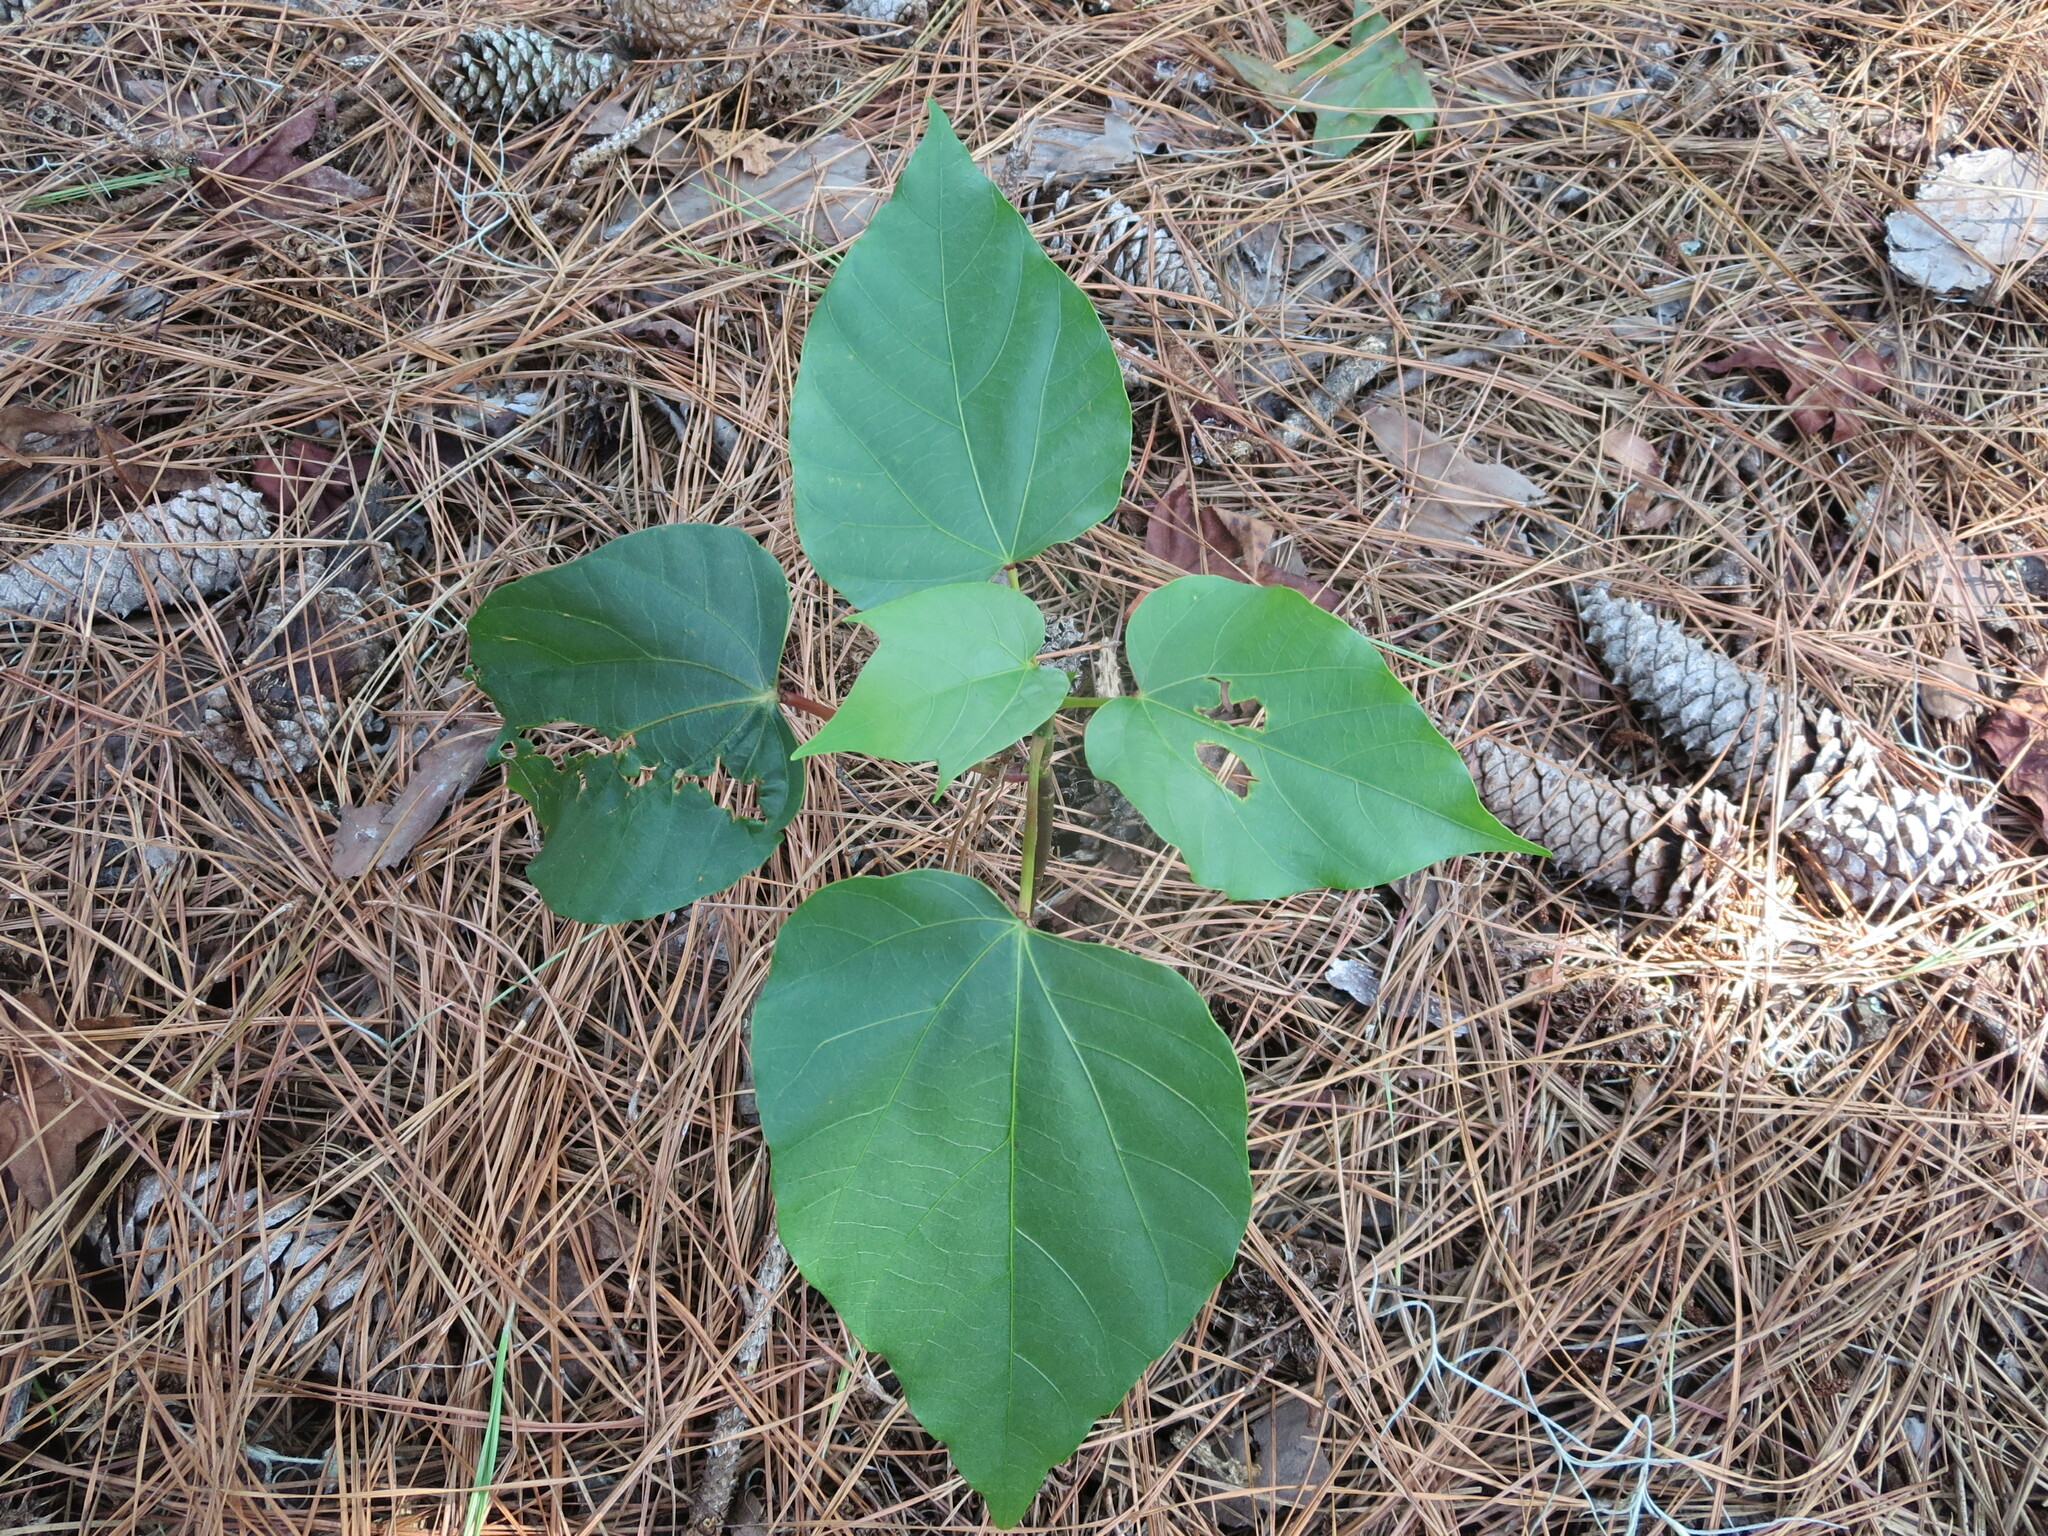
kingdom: Plantae
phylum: Tracheophyta
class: Magnoliopsida
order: Malpighiales
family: Euphorbiaceae
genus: Vernicia
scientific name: Vernicia fordii
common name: Tungoil tree
